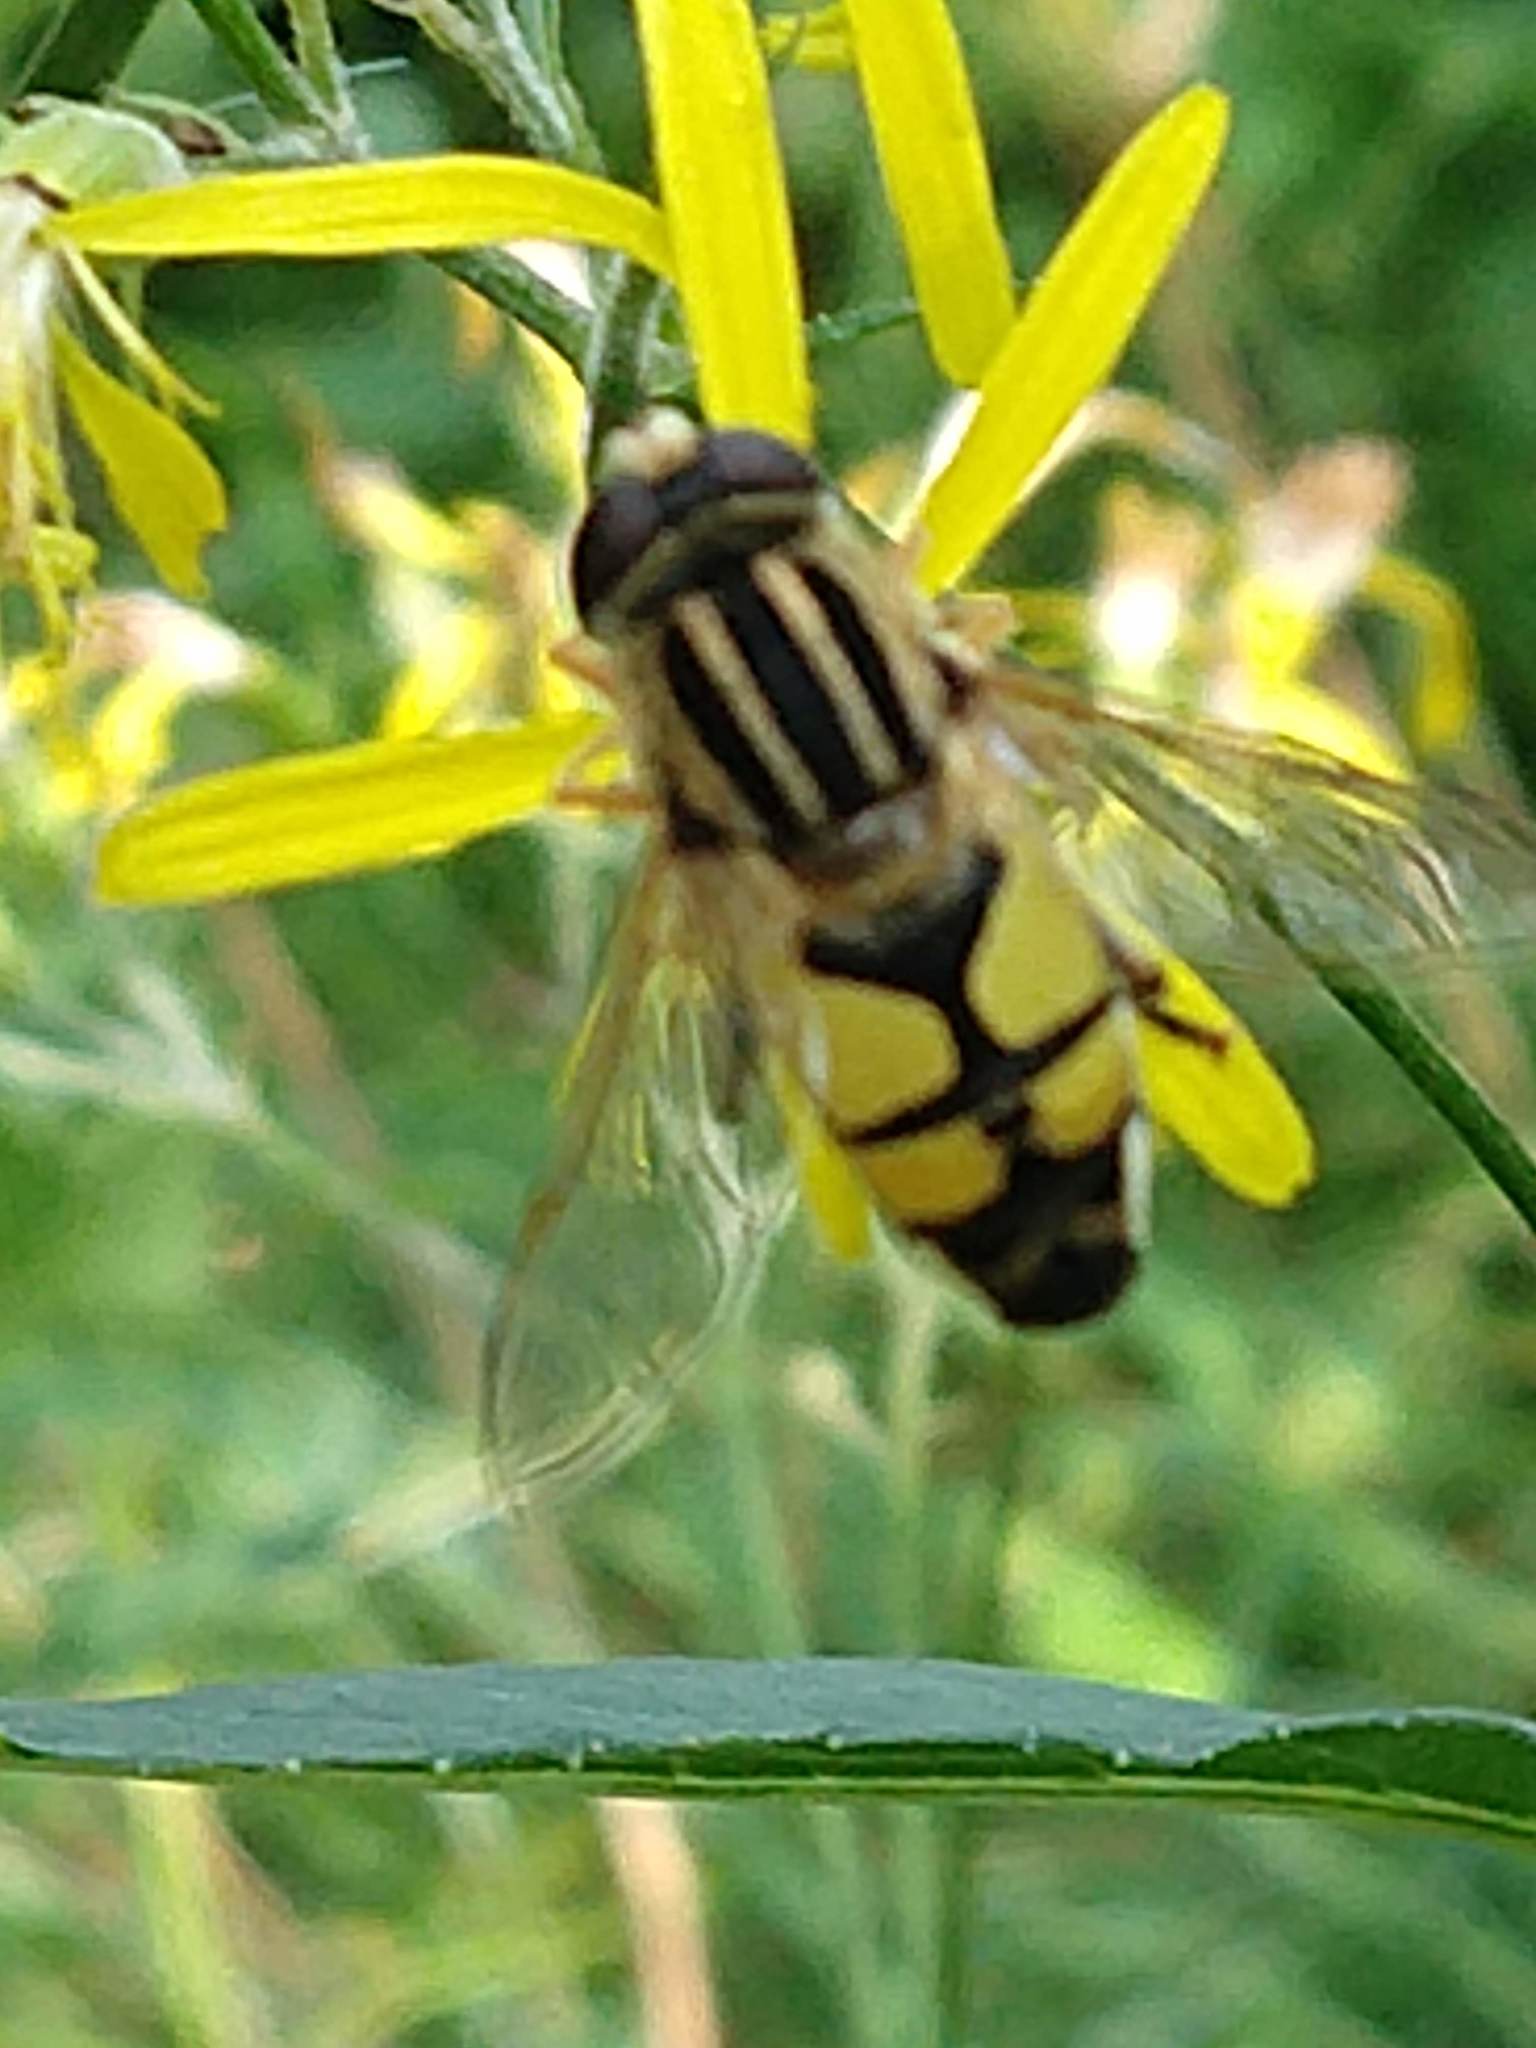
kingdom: Animalia
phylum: Arthropoda
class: Insecta
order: Diptera
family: Syrphidae
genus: Helophilus
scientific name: Helophilus trivittatus
